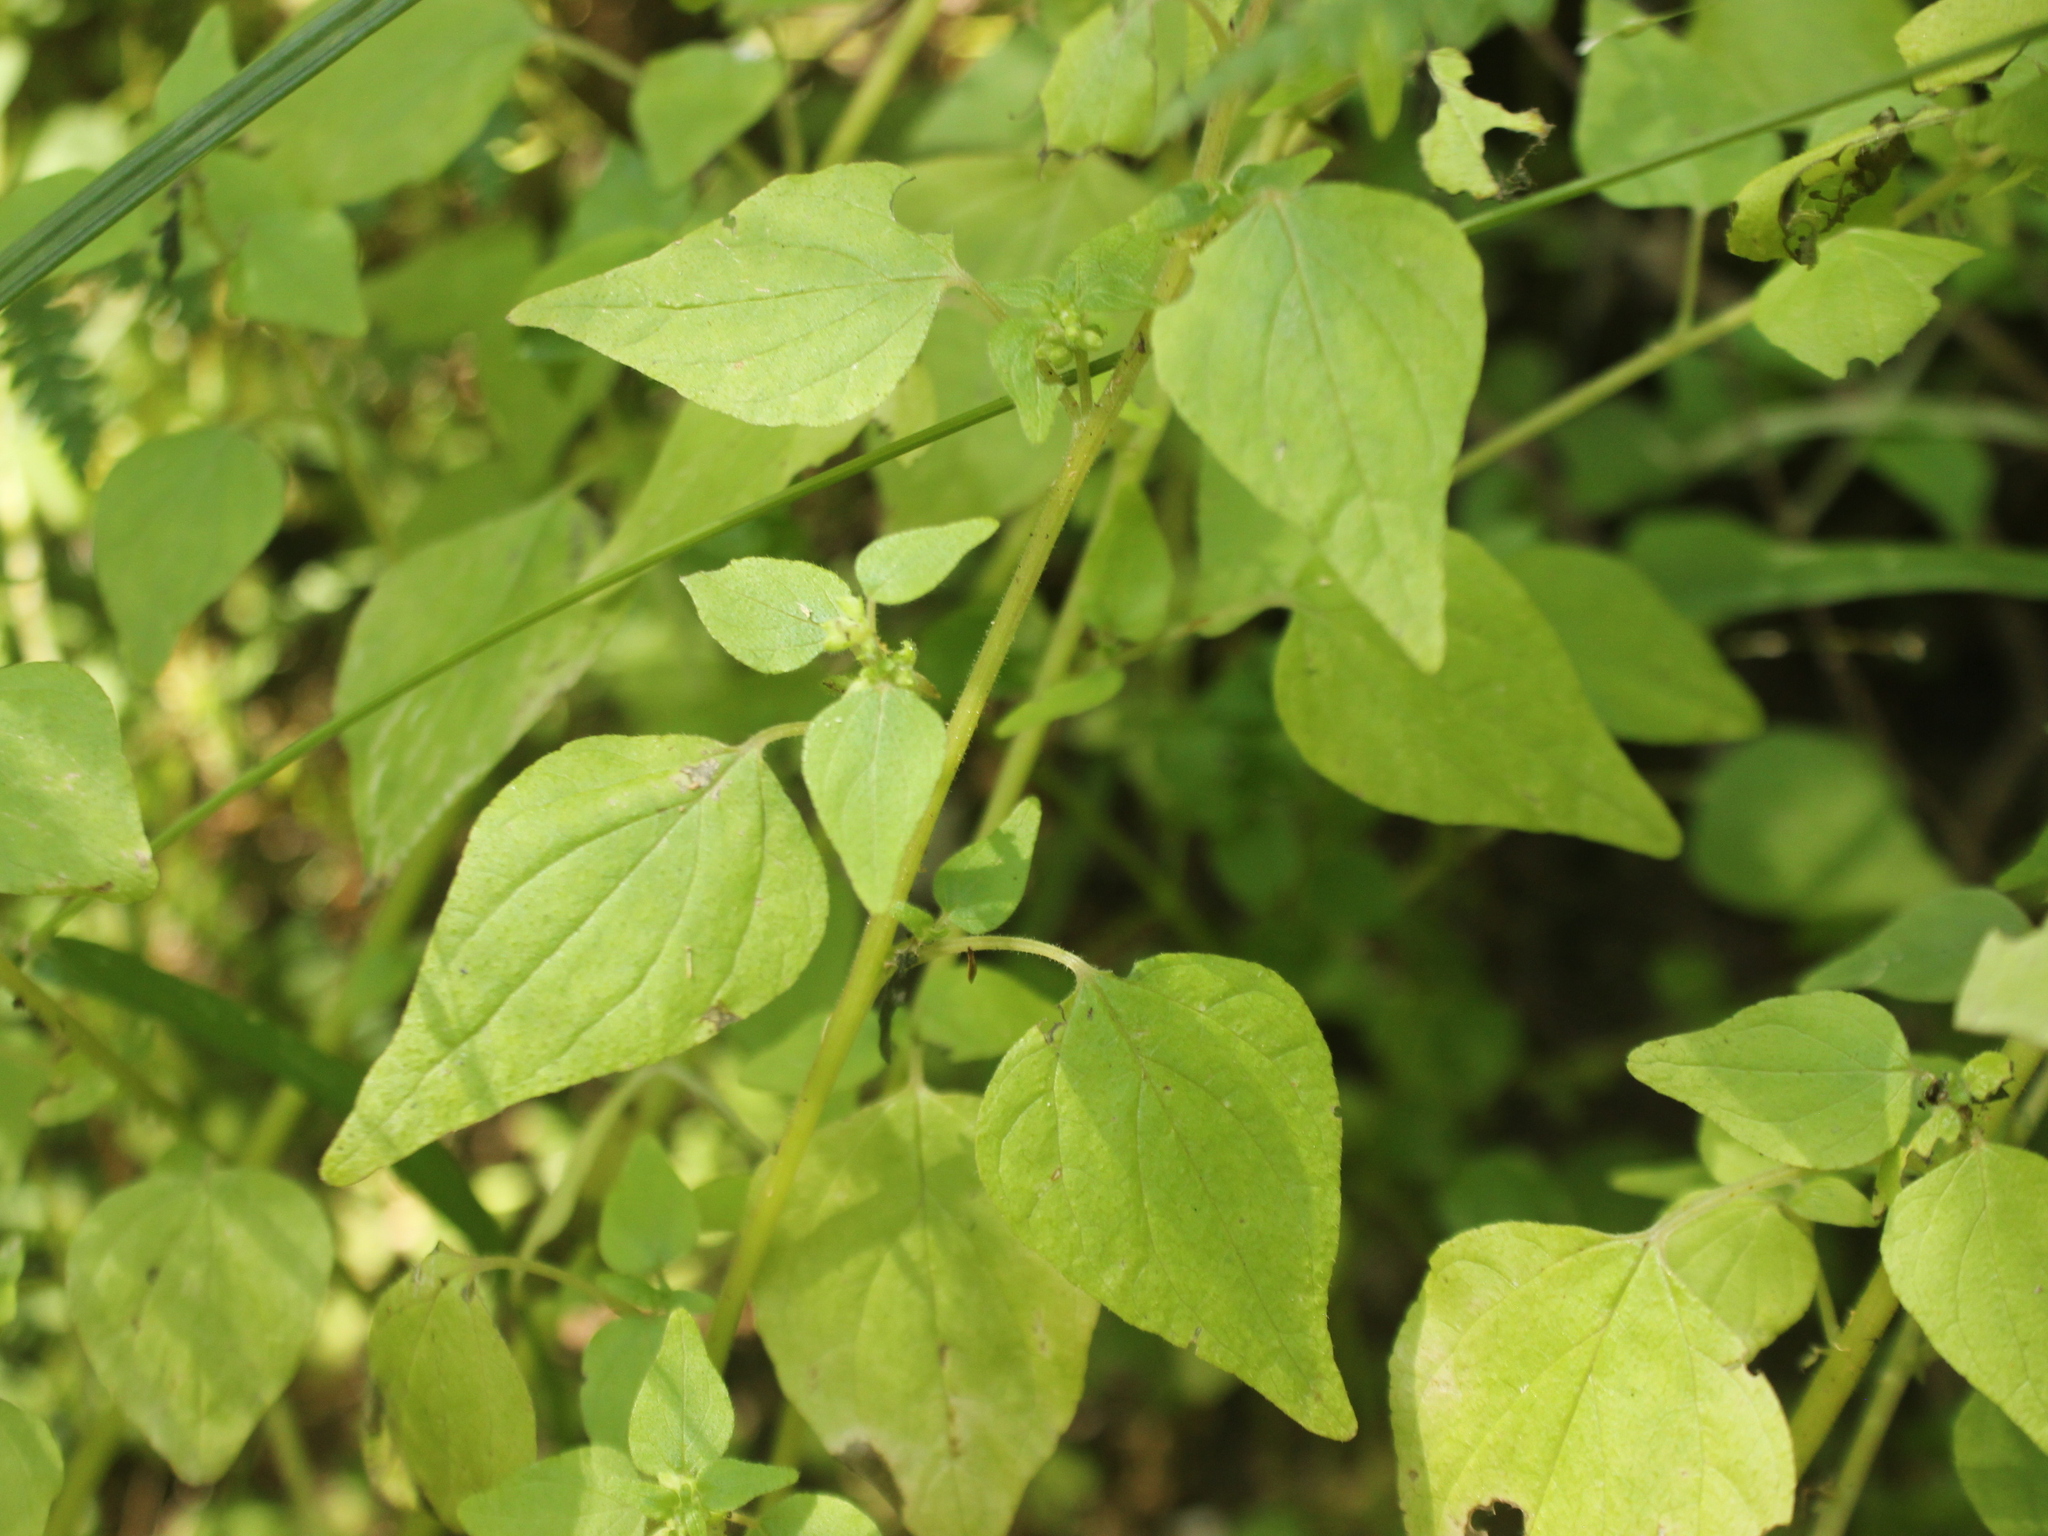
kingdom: Plantae
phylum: Tracheophyta
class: Magnoliopsida
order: Rosales
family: Urticaceae
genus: Parietaria
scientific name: Parietaria debilis
